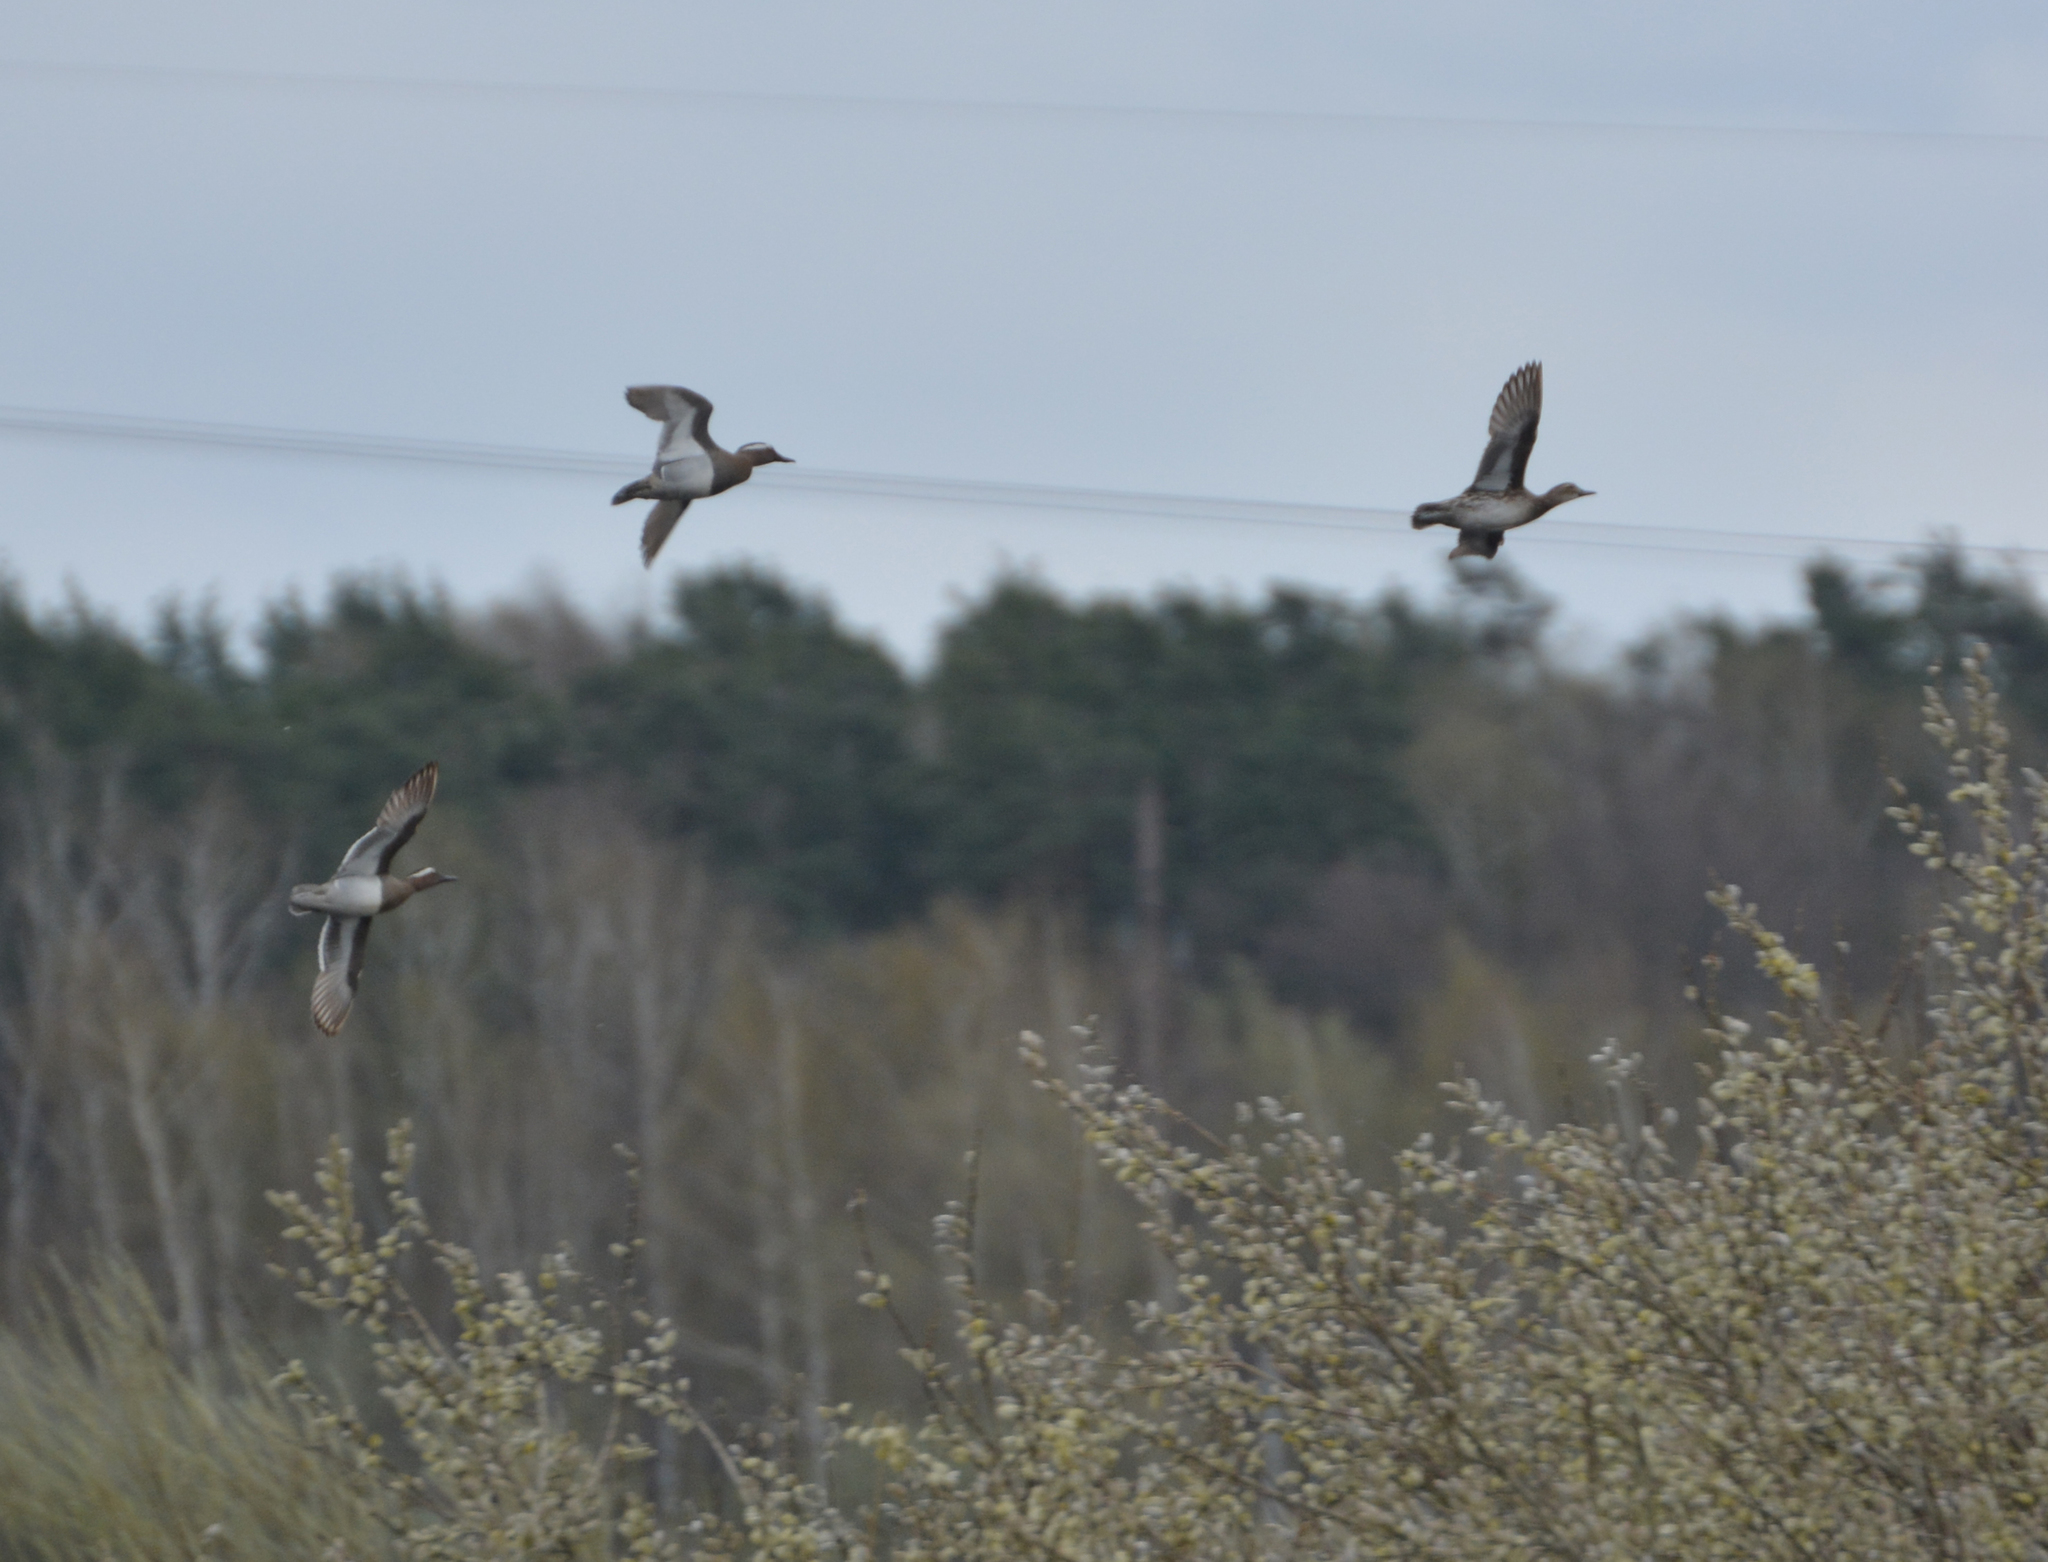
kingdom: Animalia
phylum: Chordata
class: Aves
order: Anseriformes
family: Anatidae
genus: Spatula
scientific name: Spatula querquedula
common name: Garganey
